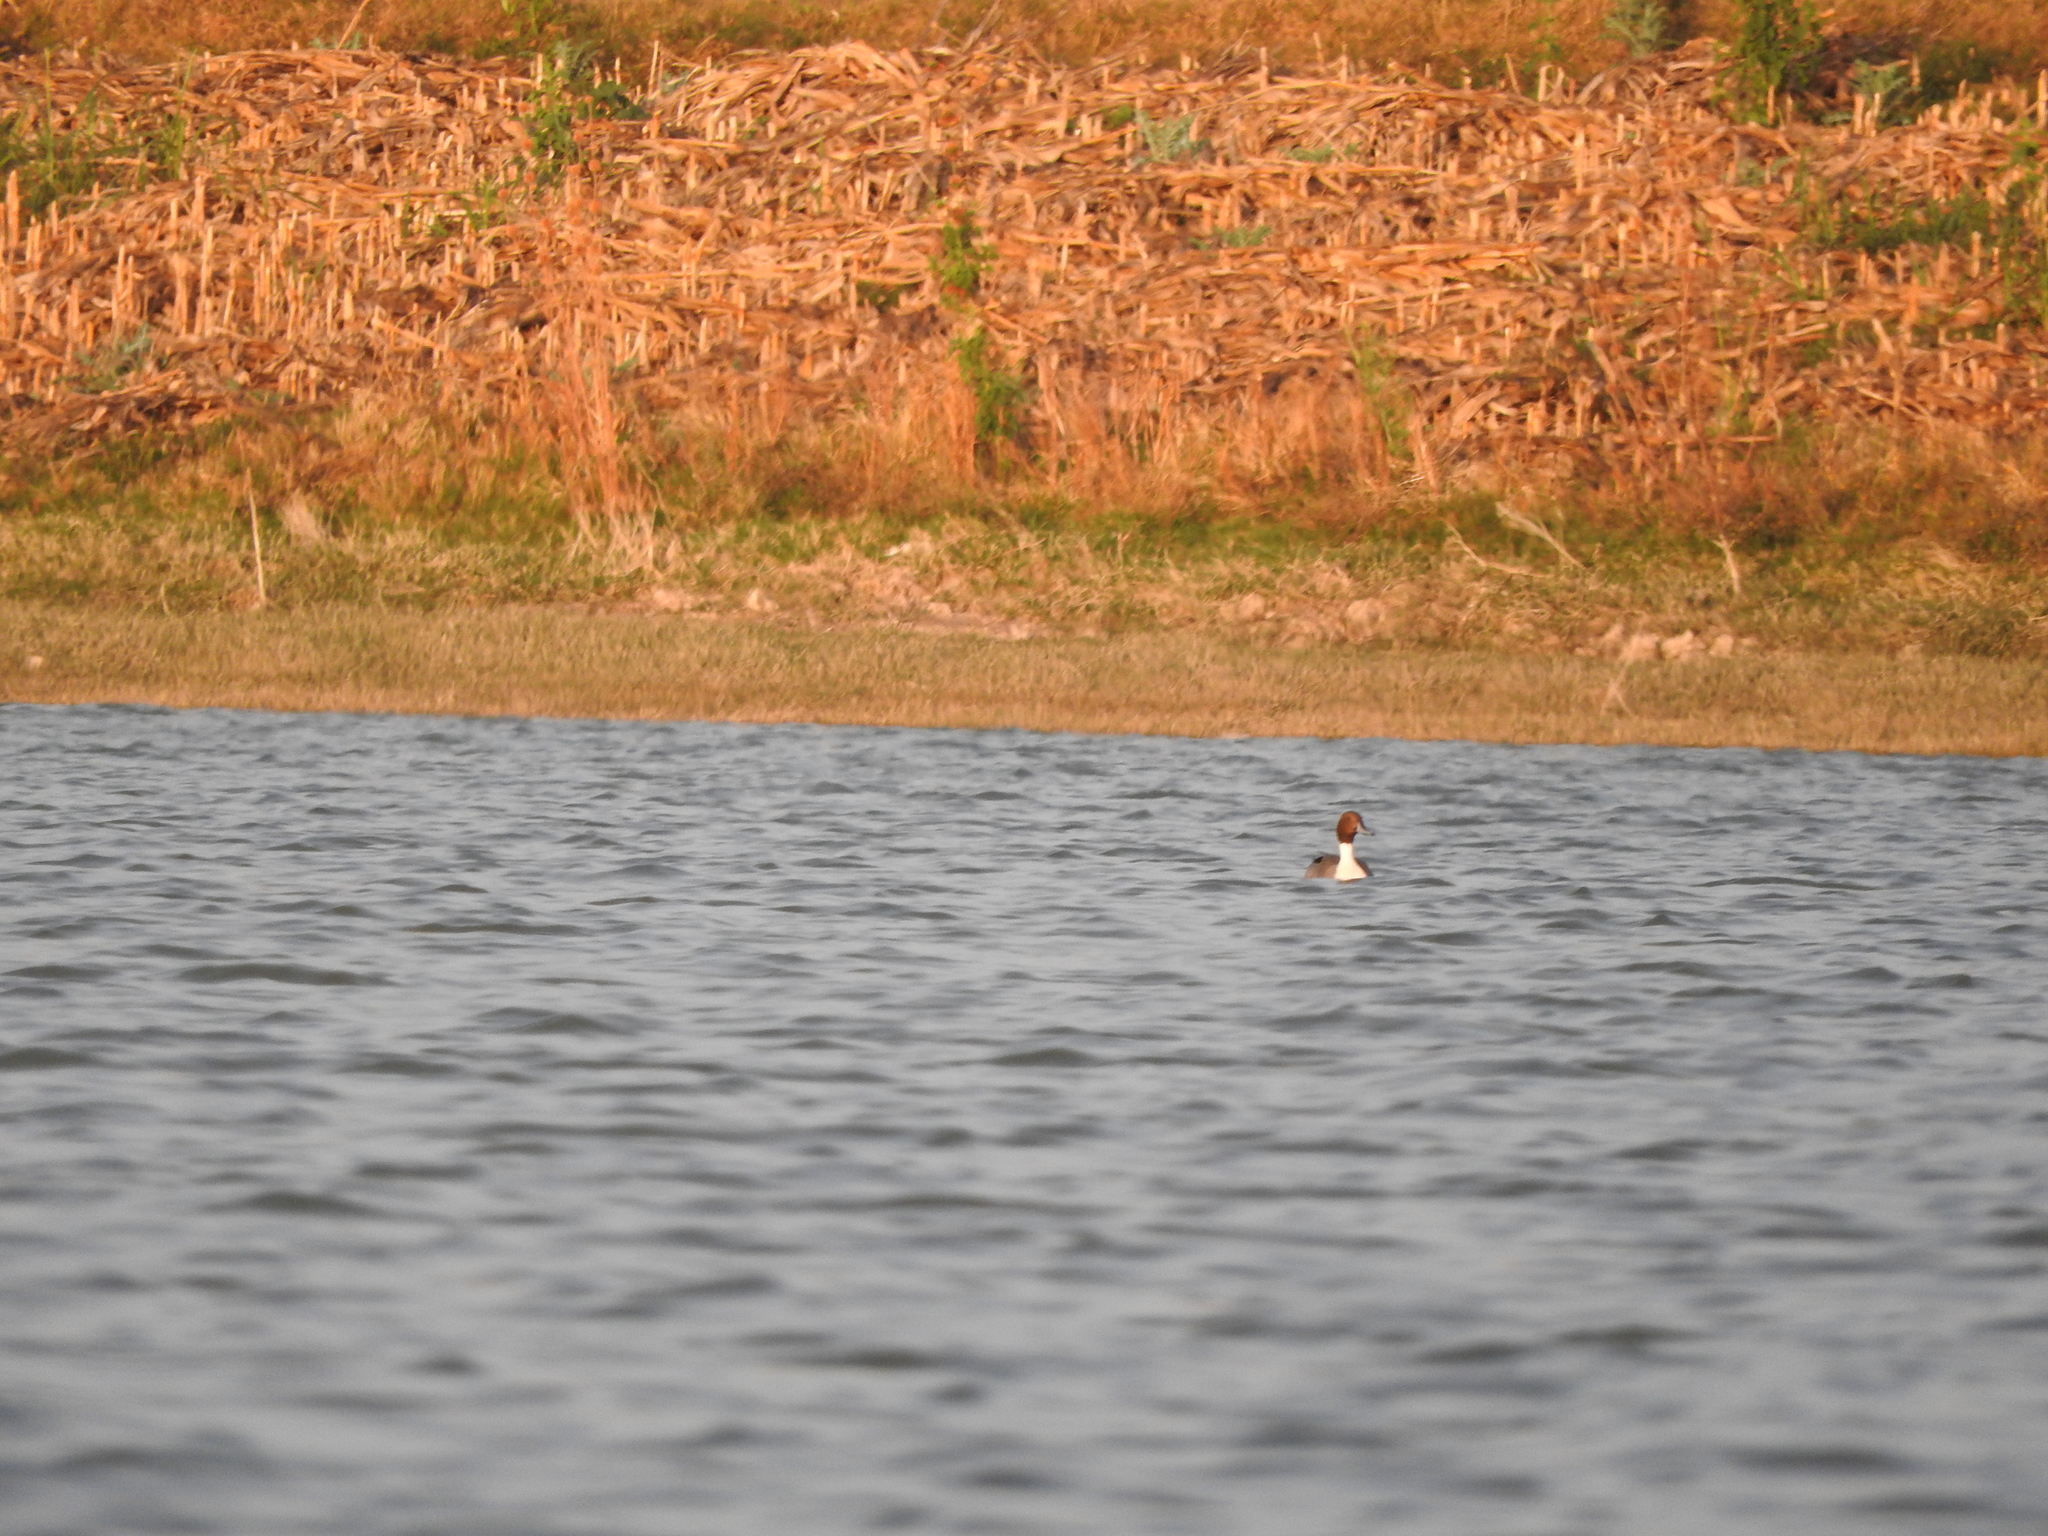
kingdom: Animalia
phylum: Chordata
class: Aves
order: Anseriformes
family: Anatidae
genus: Anas
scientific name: Anas acuta
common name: Northern pintail
